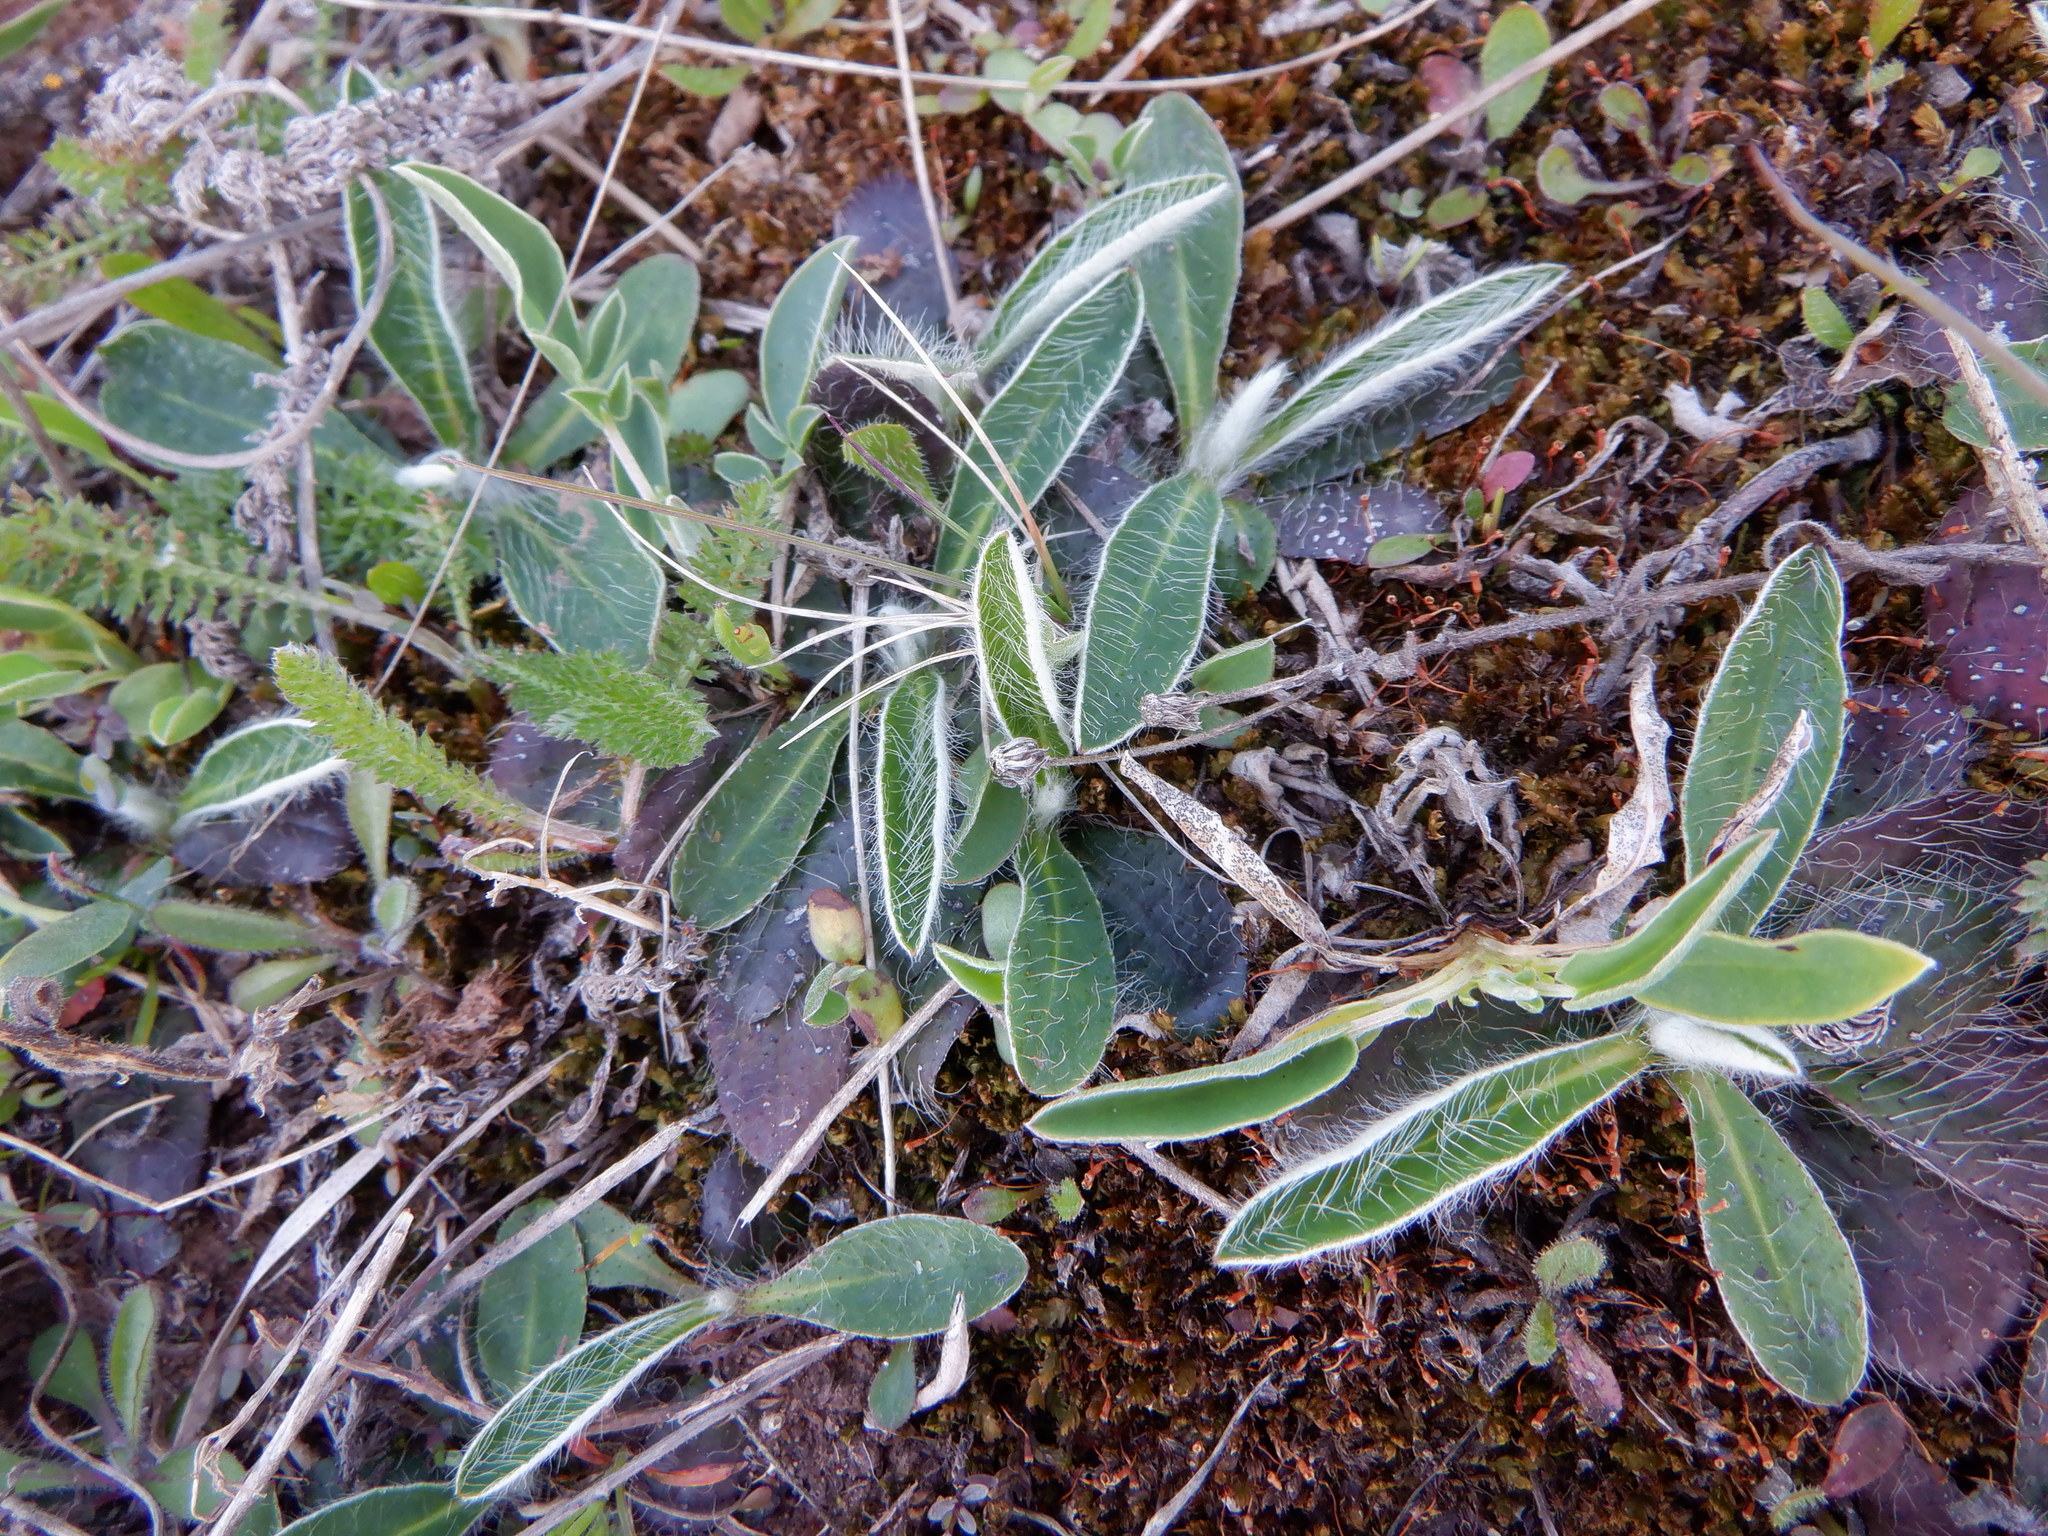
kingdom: Plantae
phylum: Tracheophyta
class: Magnoliopsida
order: Asterales
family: Asteraceae
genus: Pilosella
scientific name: Pilosella officinarum
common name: Mouse-ear hawkweed
